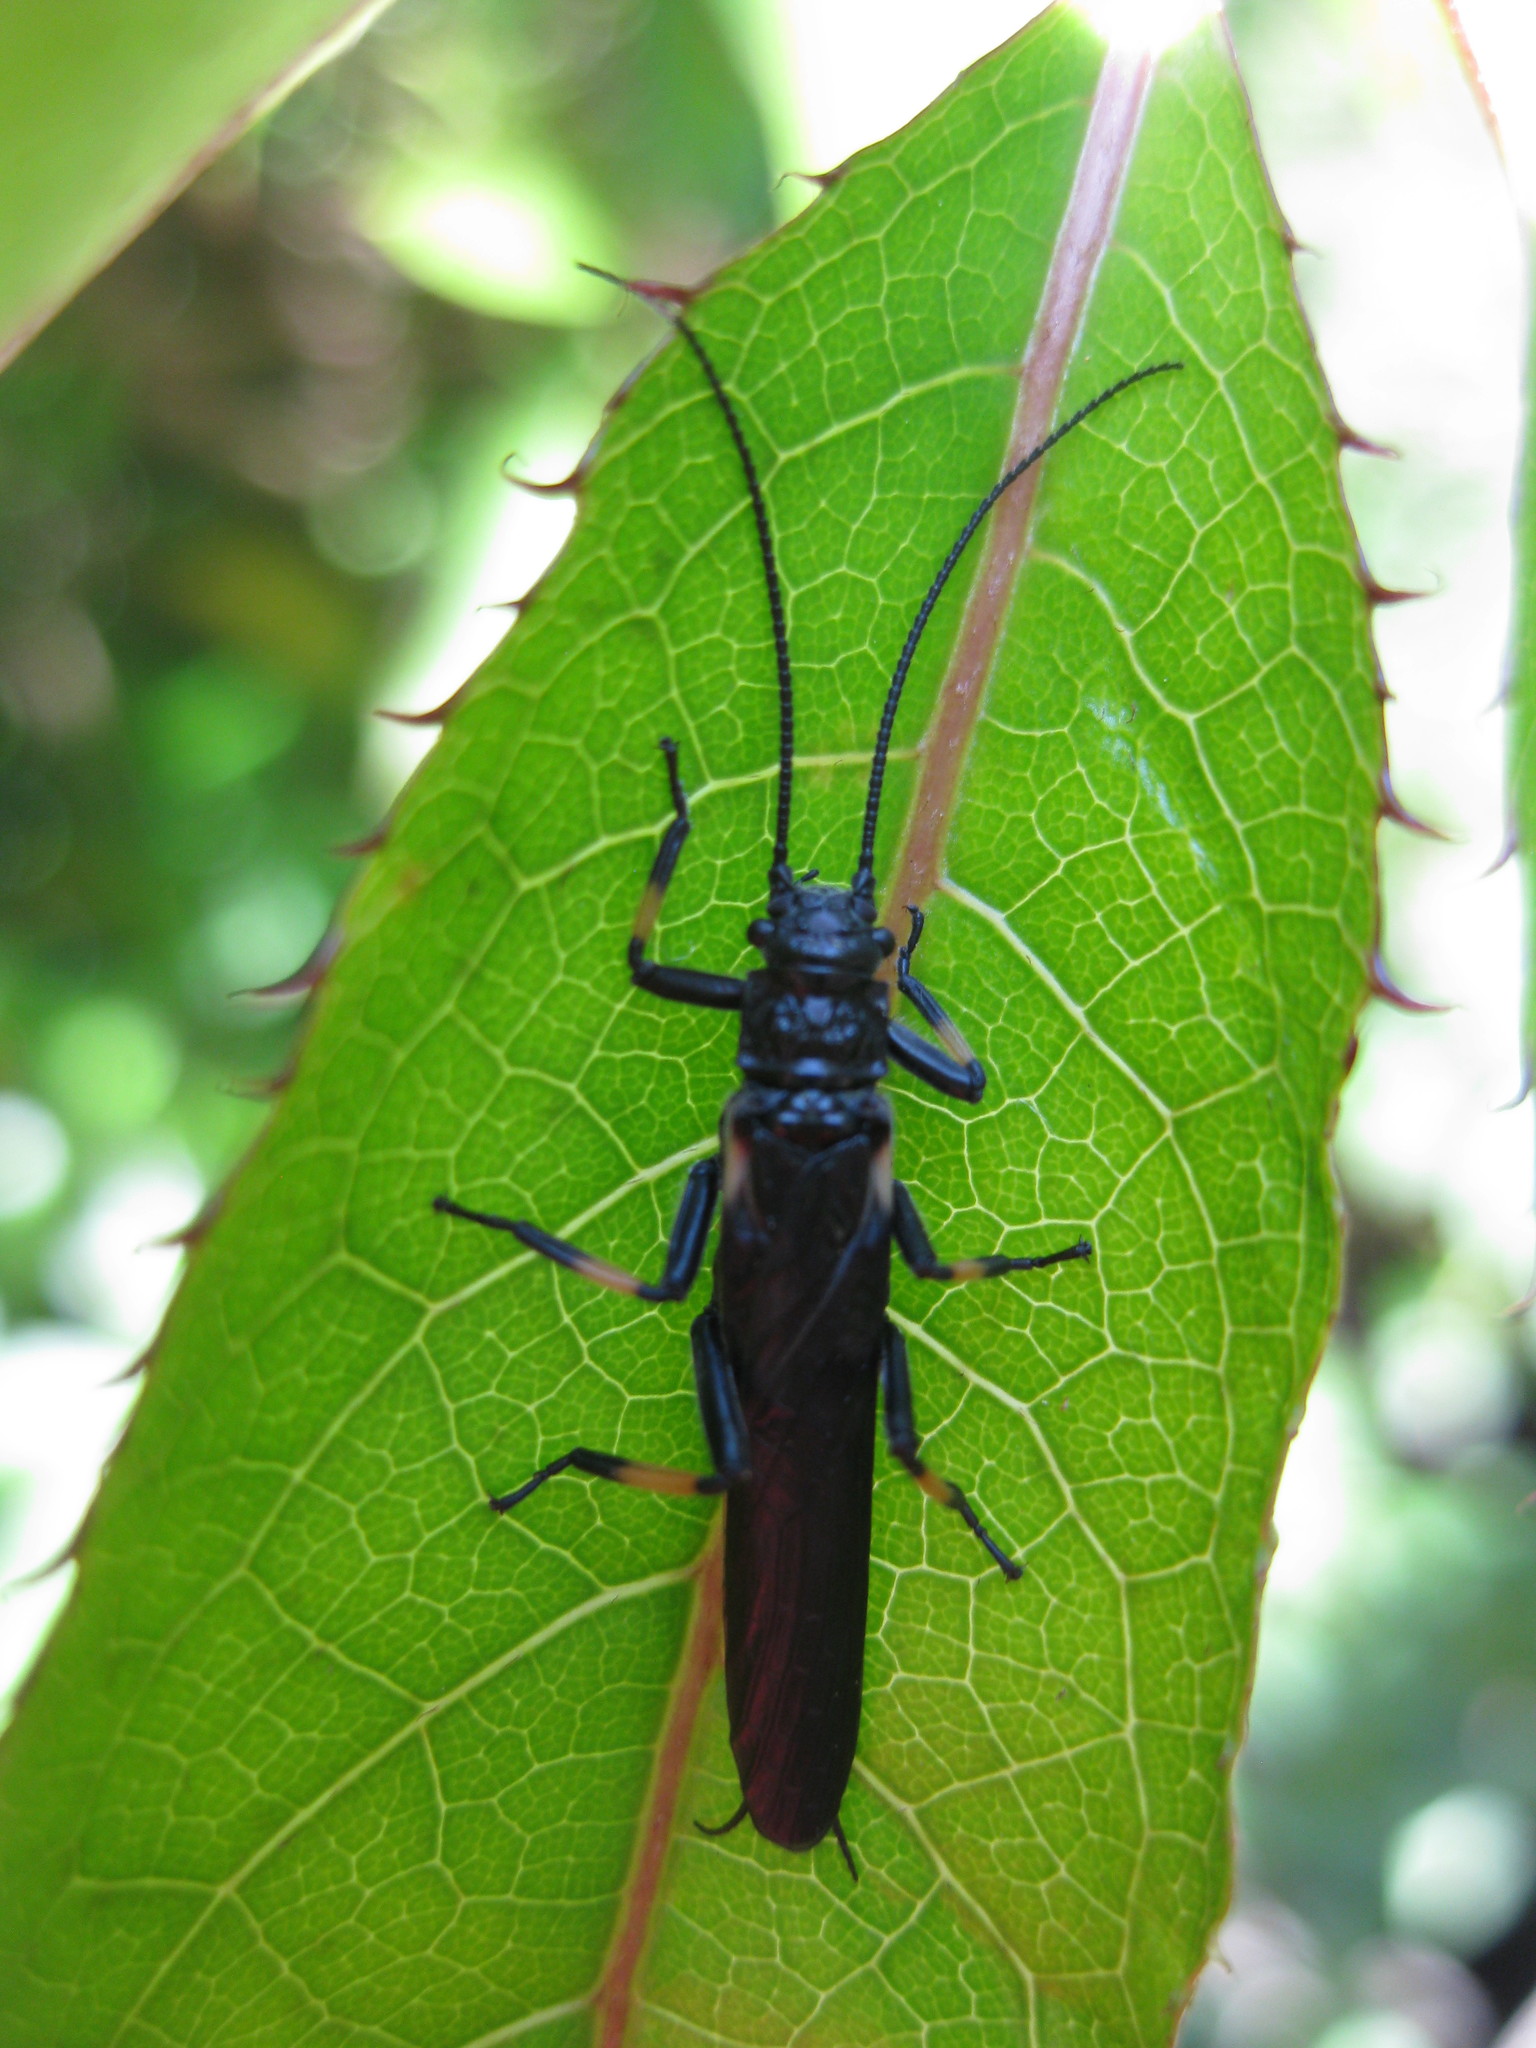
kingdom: Animalia
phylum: Arthropoda
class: Insecta
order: Plecoptera
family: Austroperlidae
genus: Austroperla
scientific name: Austroperla cyrene
